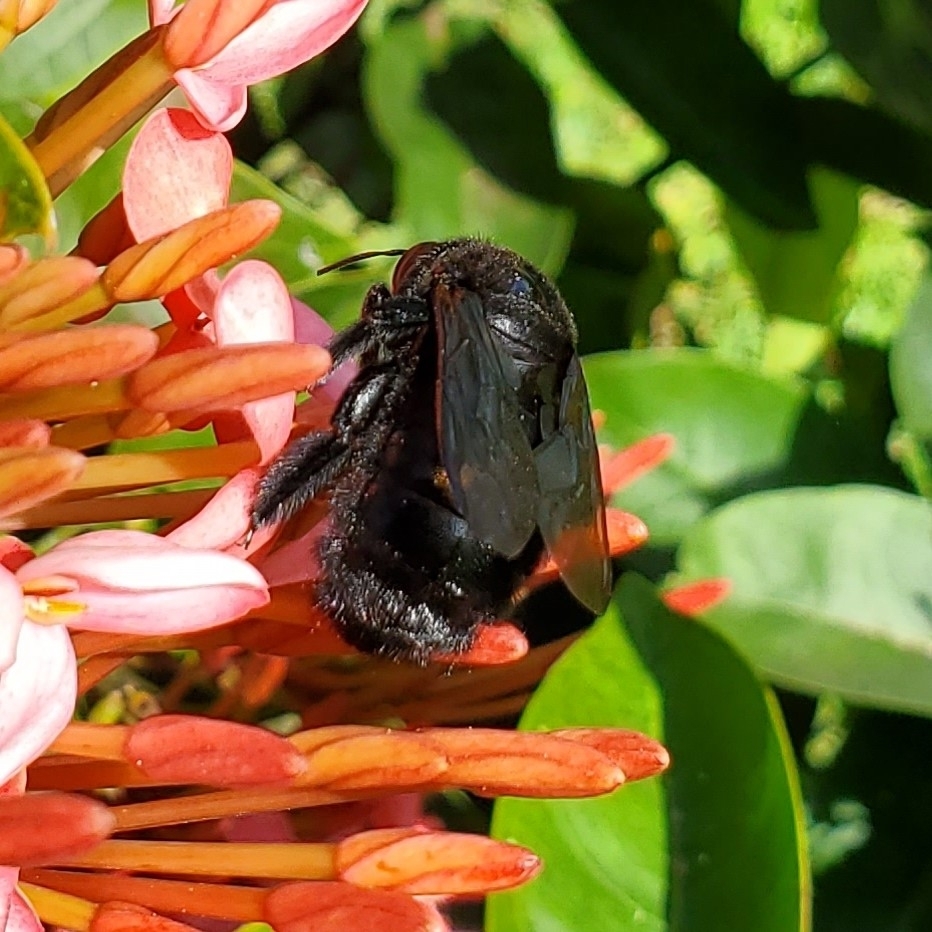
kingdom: Animalia
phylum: Arthropoda
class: Insecta
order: Hymenoptera
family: Apidae
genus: Xylocopa
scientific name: Xylocopa sonorina
